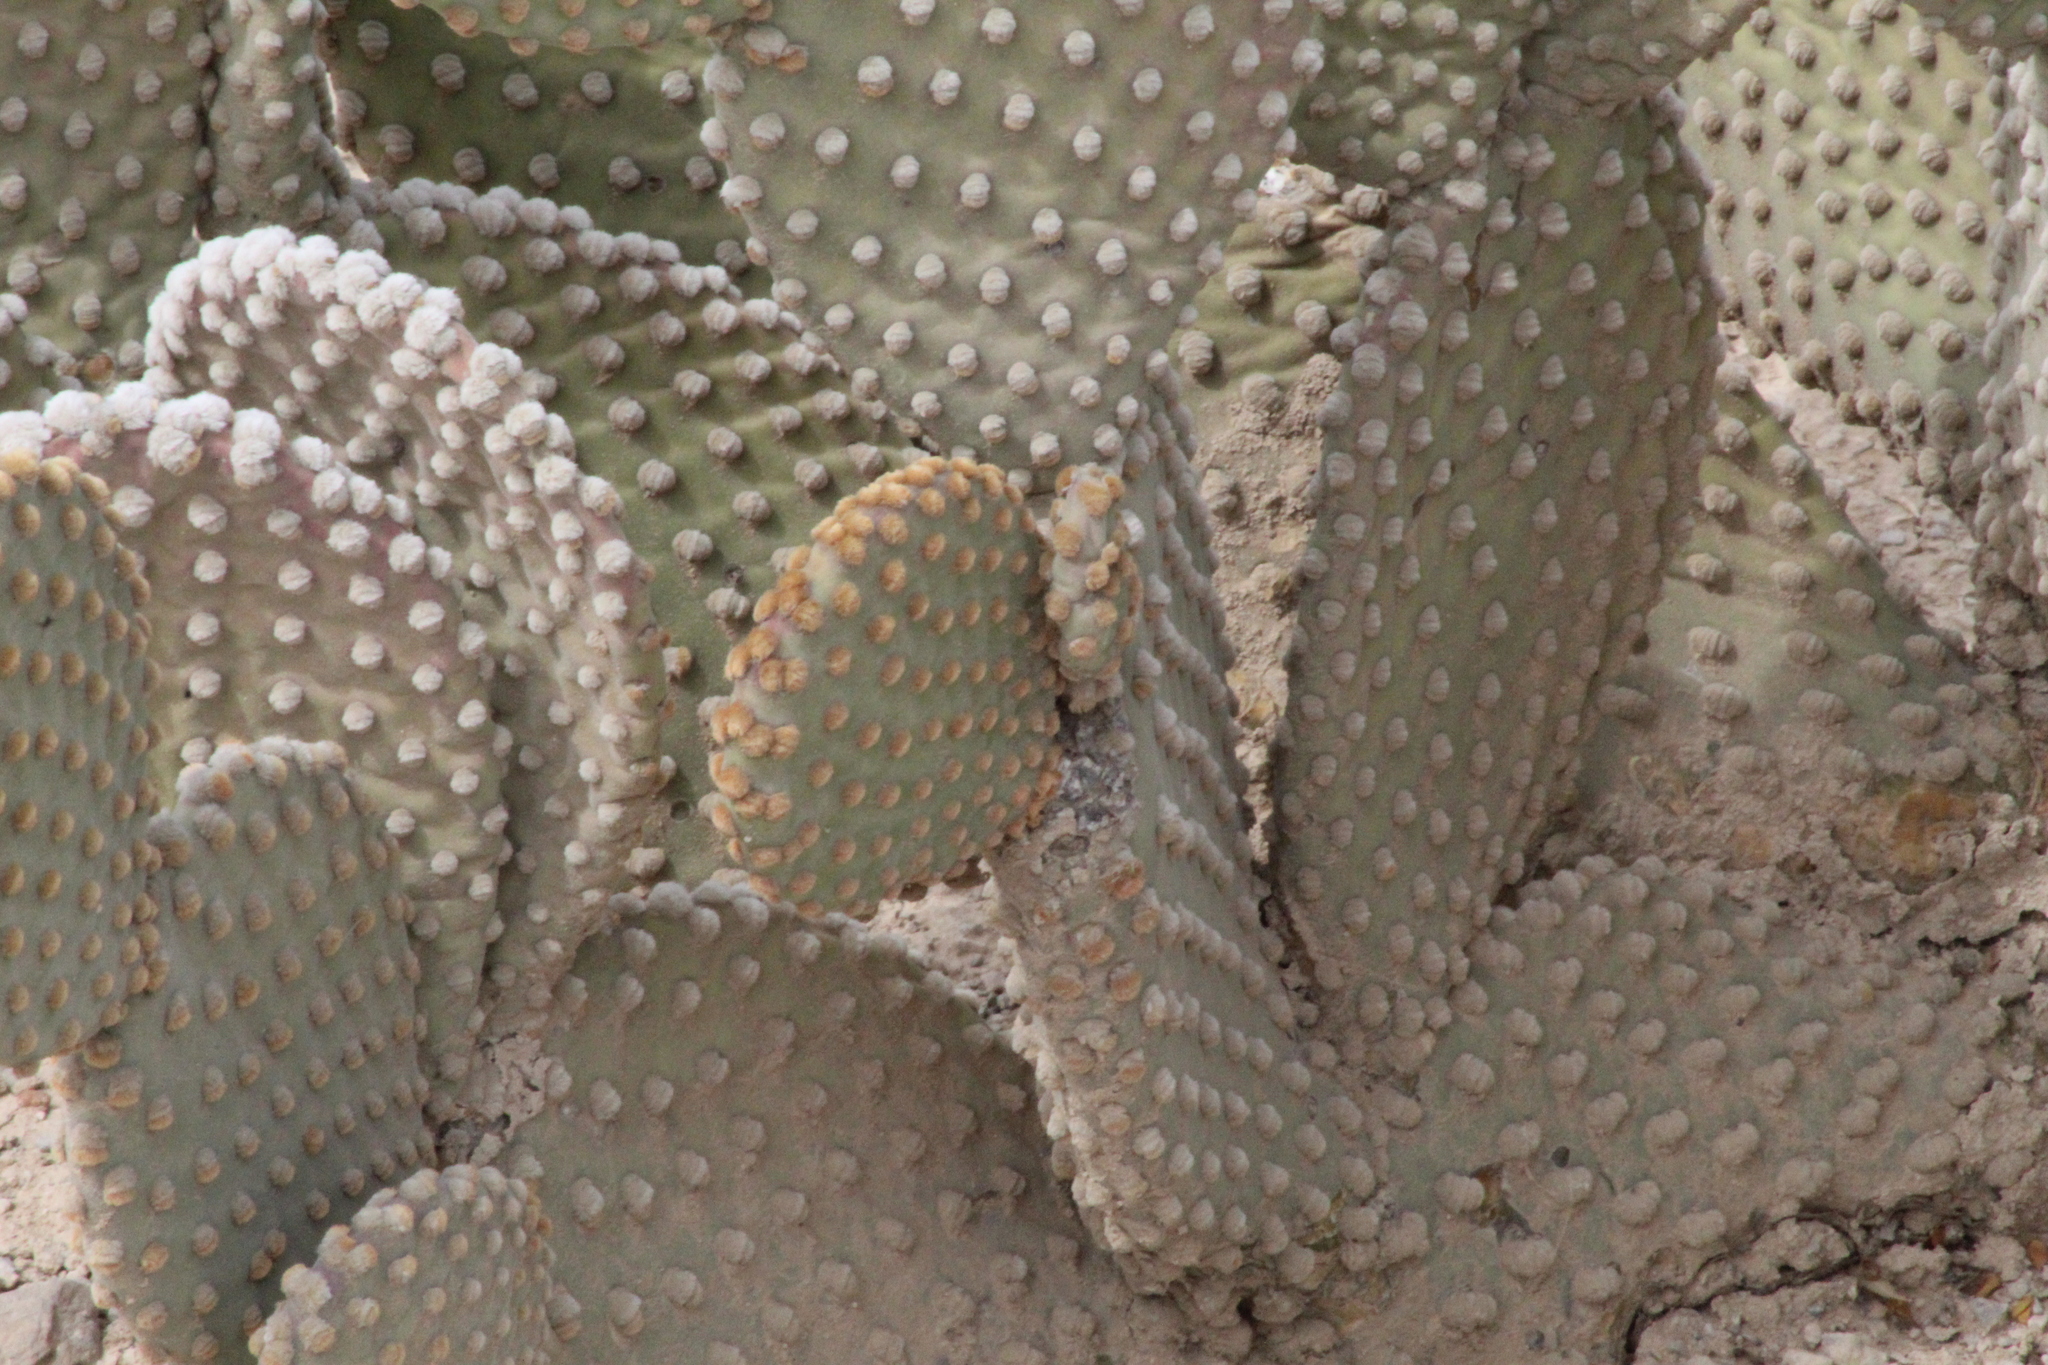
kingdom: Plantae
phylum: Tracheophyta
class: Magnoliopsida
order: Caryophyllales
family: Cactaceae
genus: Opuntia
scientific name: Opuntia microdasys
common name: Angel's-wings
